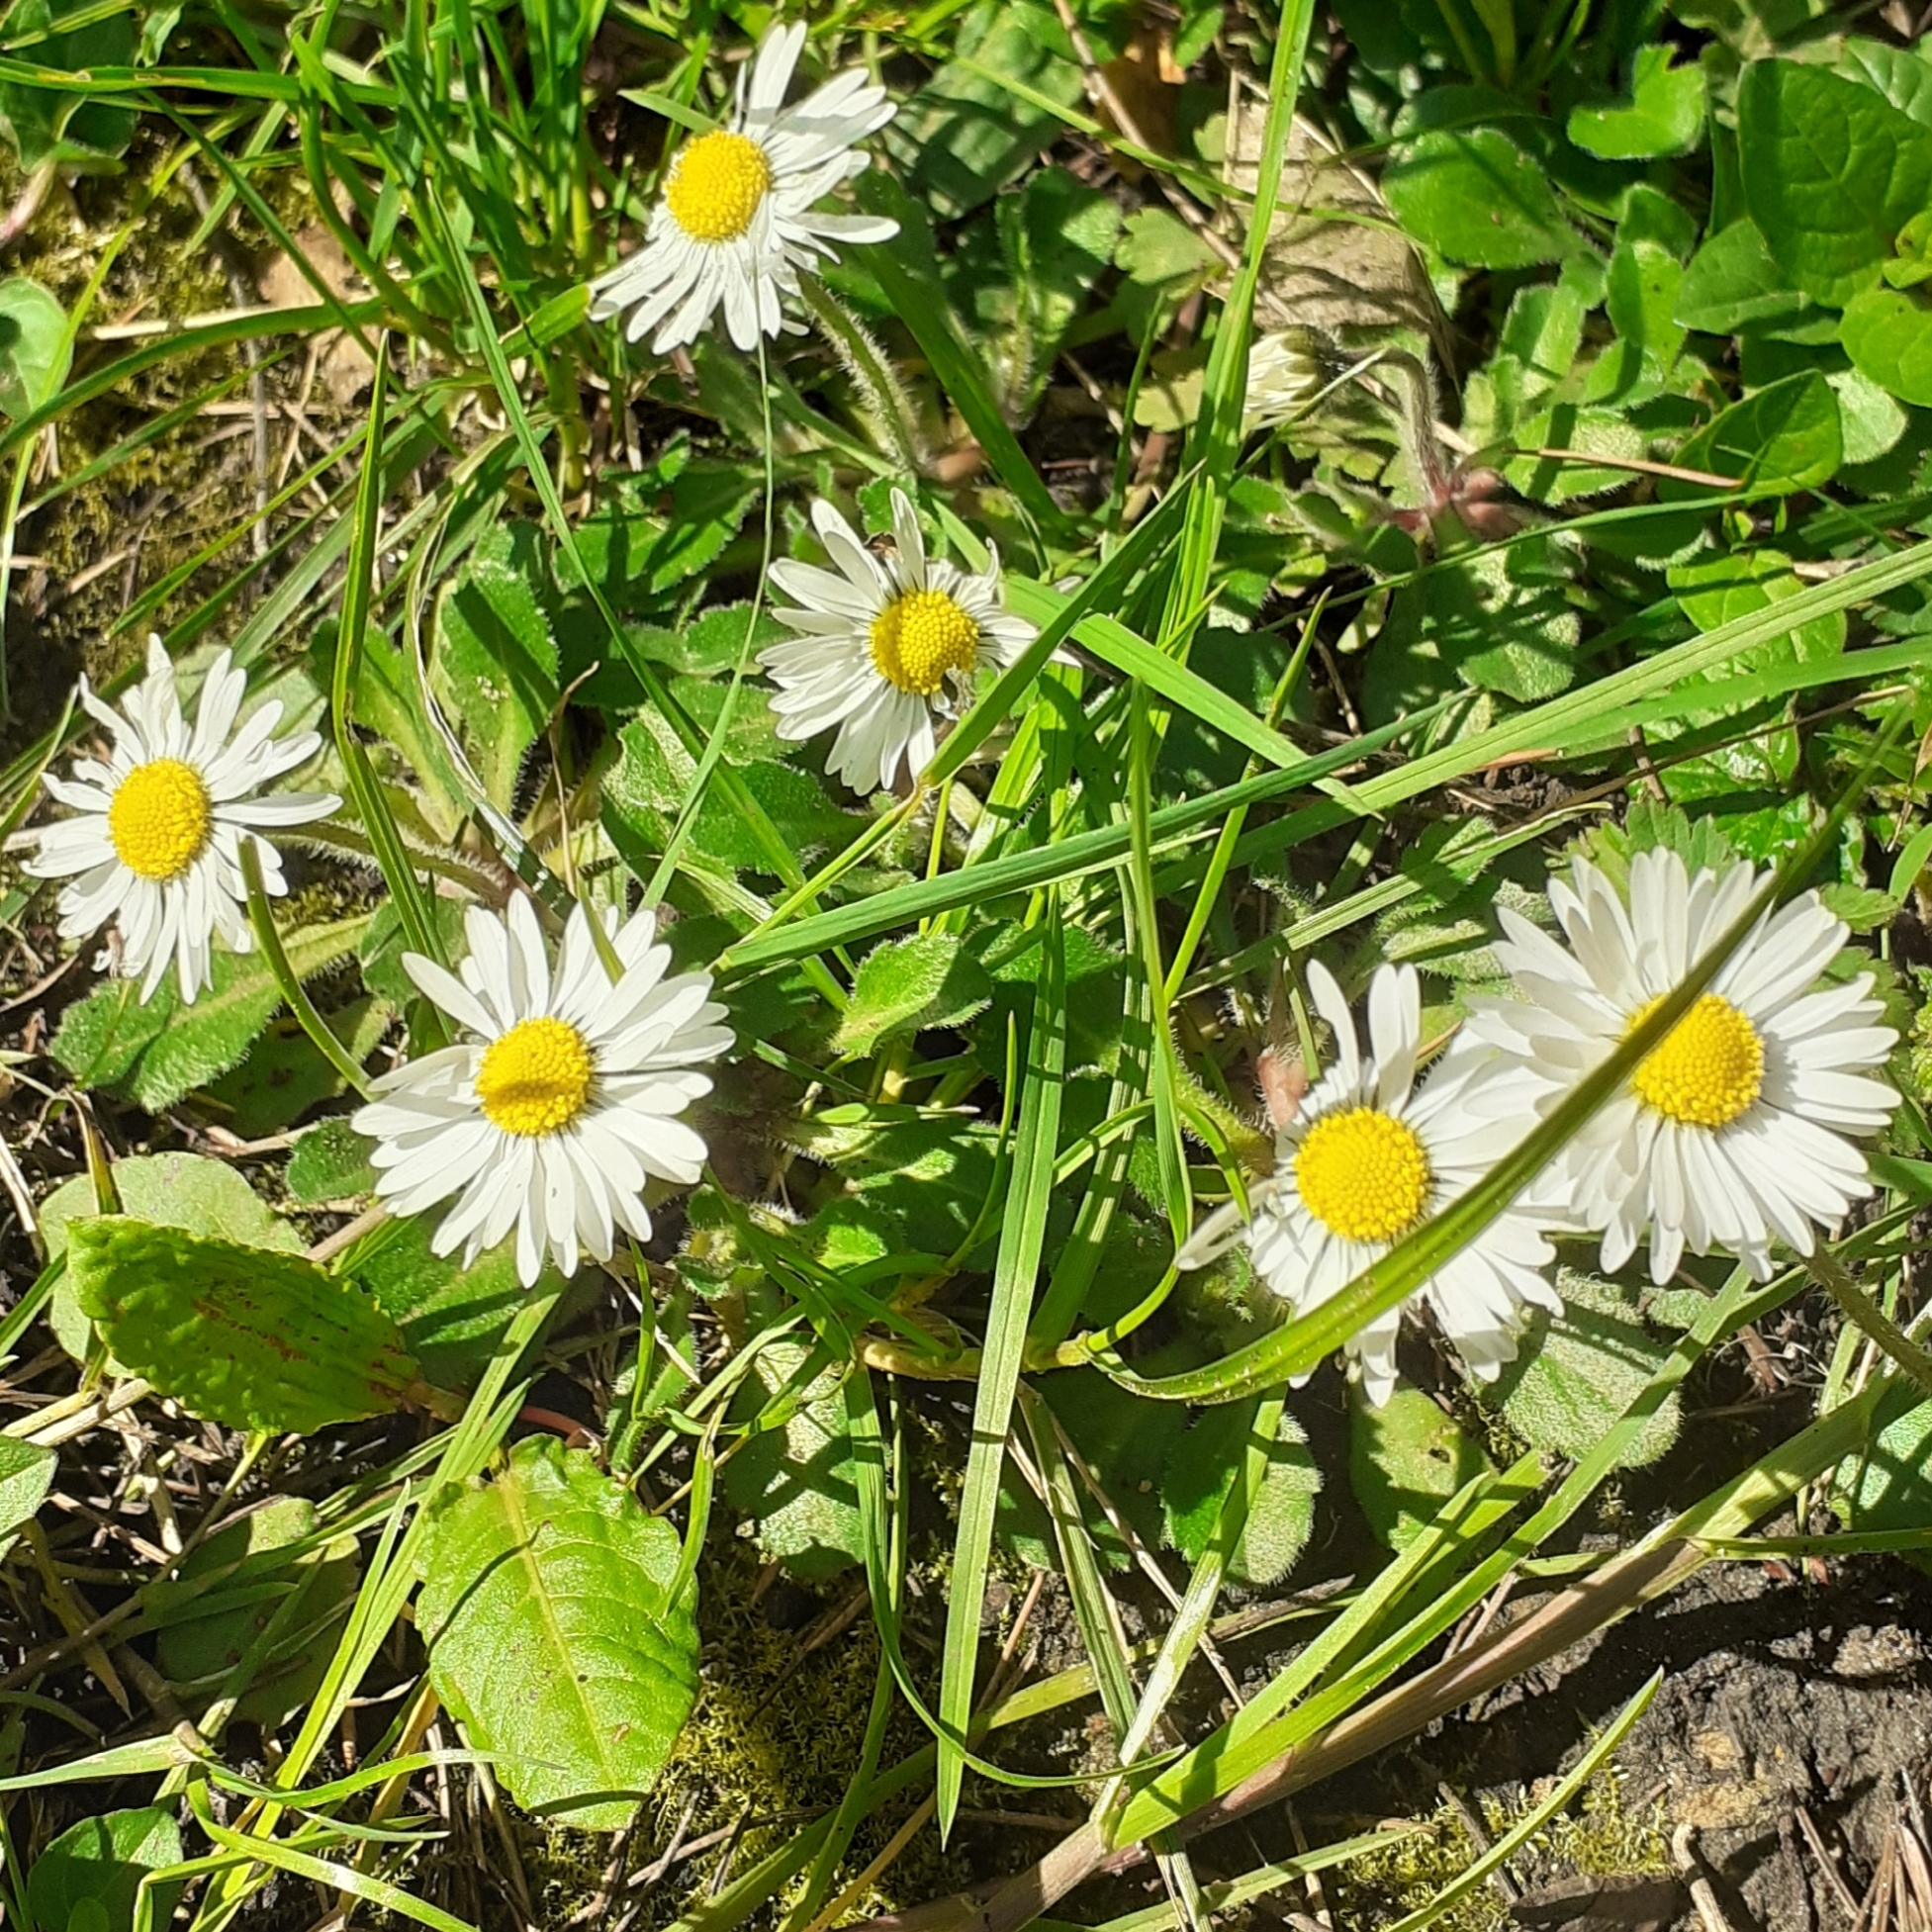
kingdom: Plantae
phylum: Tracheophyta
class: Magnoliopsida
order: Asterales
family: Asteraceae
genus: Bellis
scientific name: Bellis perennis
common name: Lawndaisy
